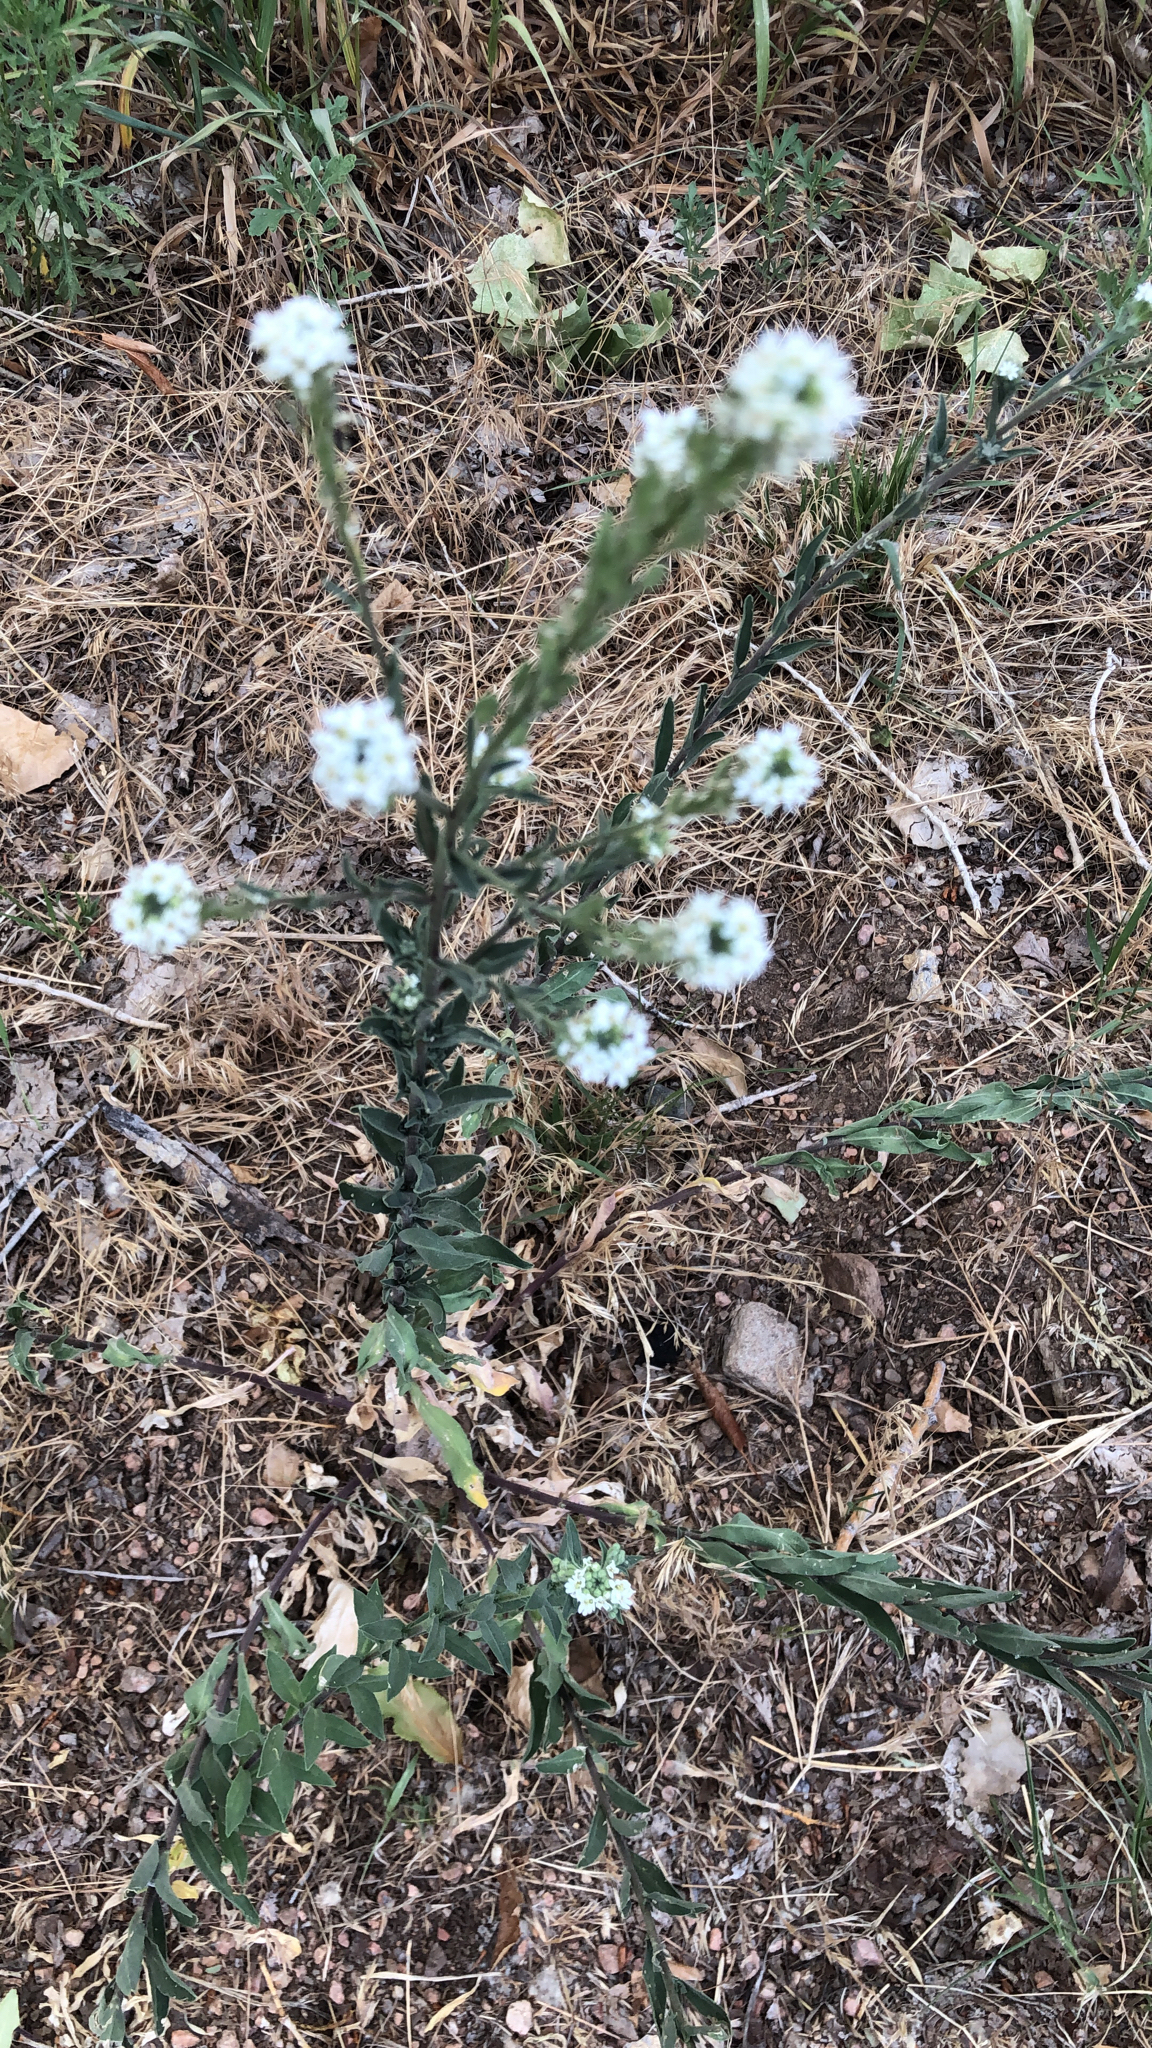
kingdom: Plantae
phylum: Tracheophyta
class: Magnoliopsida
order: Brassicales
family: Brassicaceae
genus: Berteroa
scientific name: Berteroa incana
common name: Hoary alison
